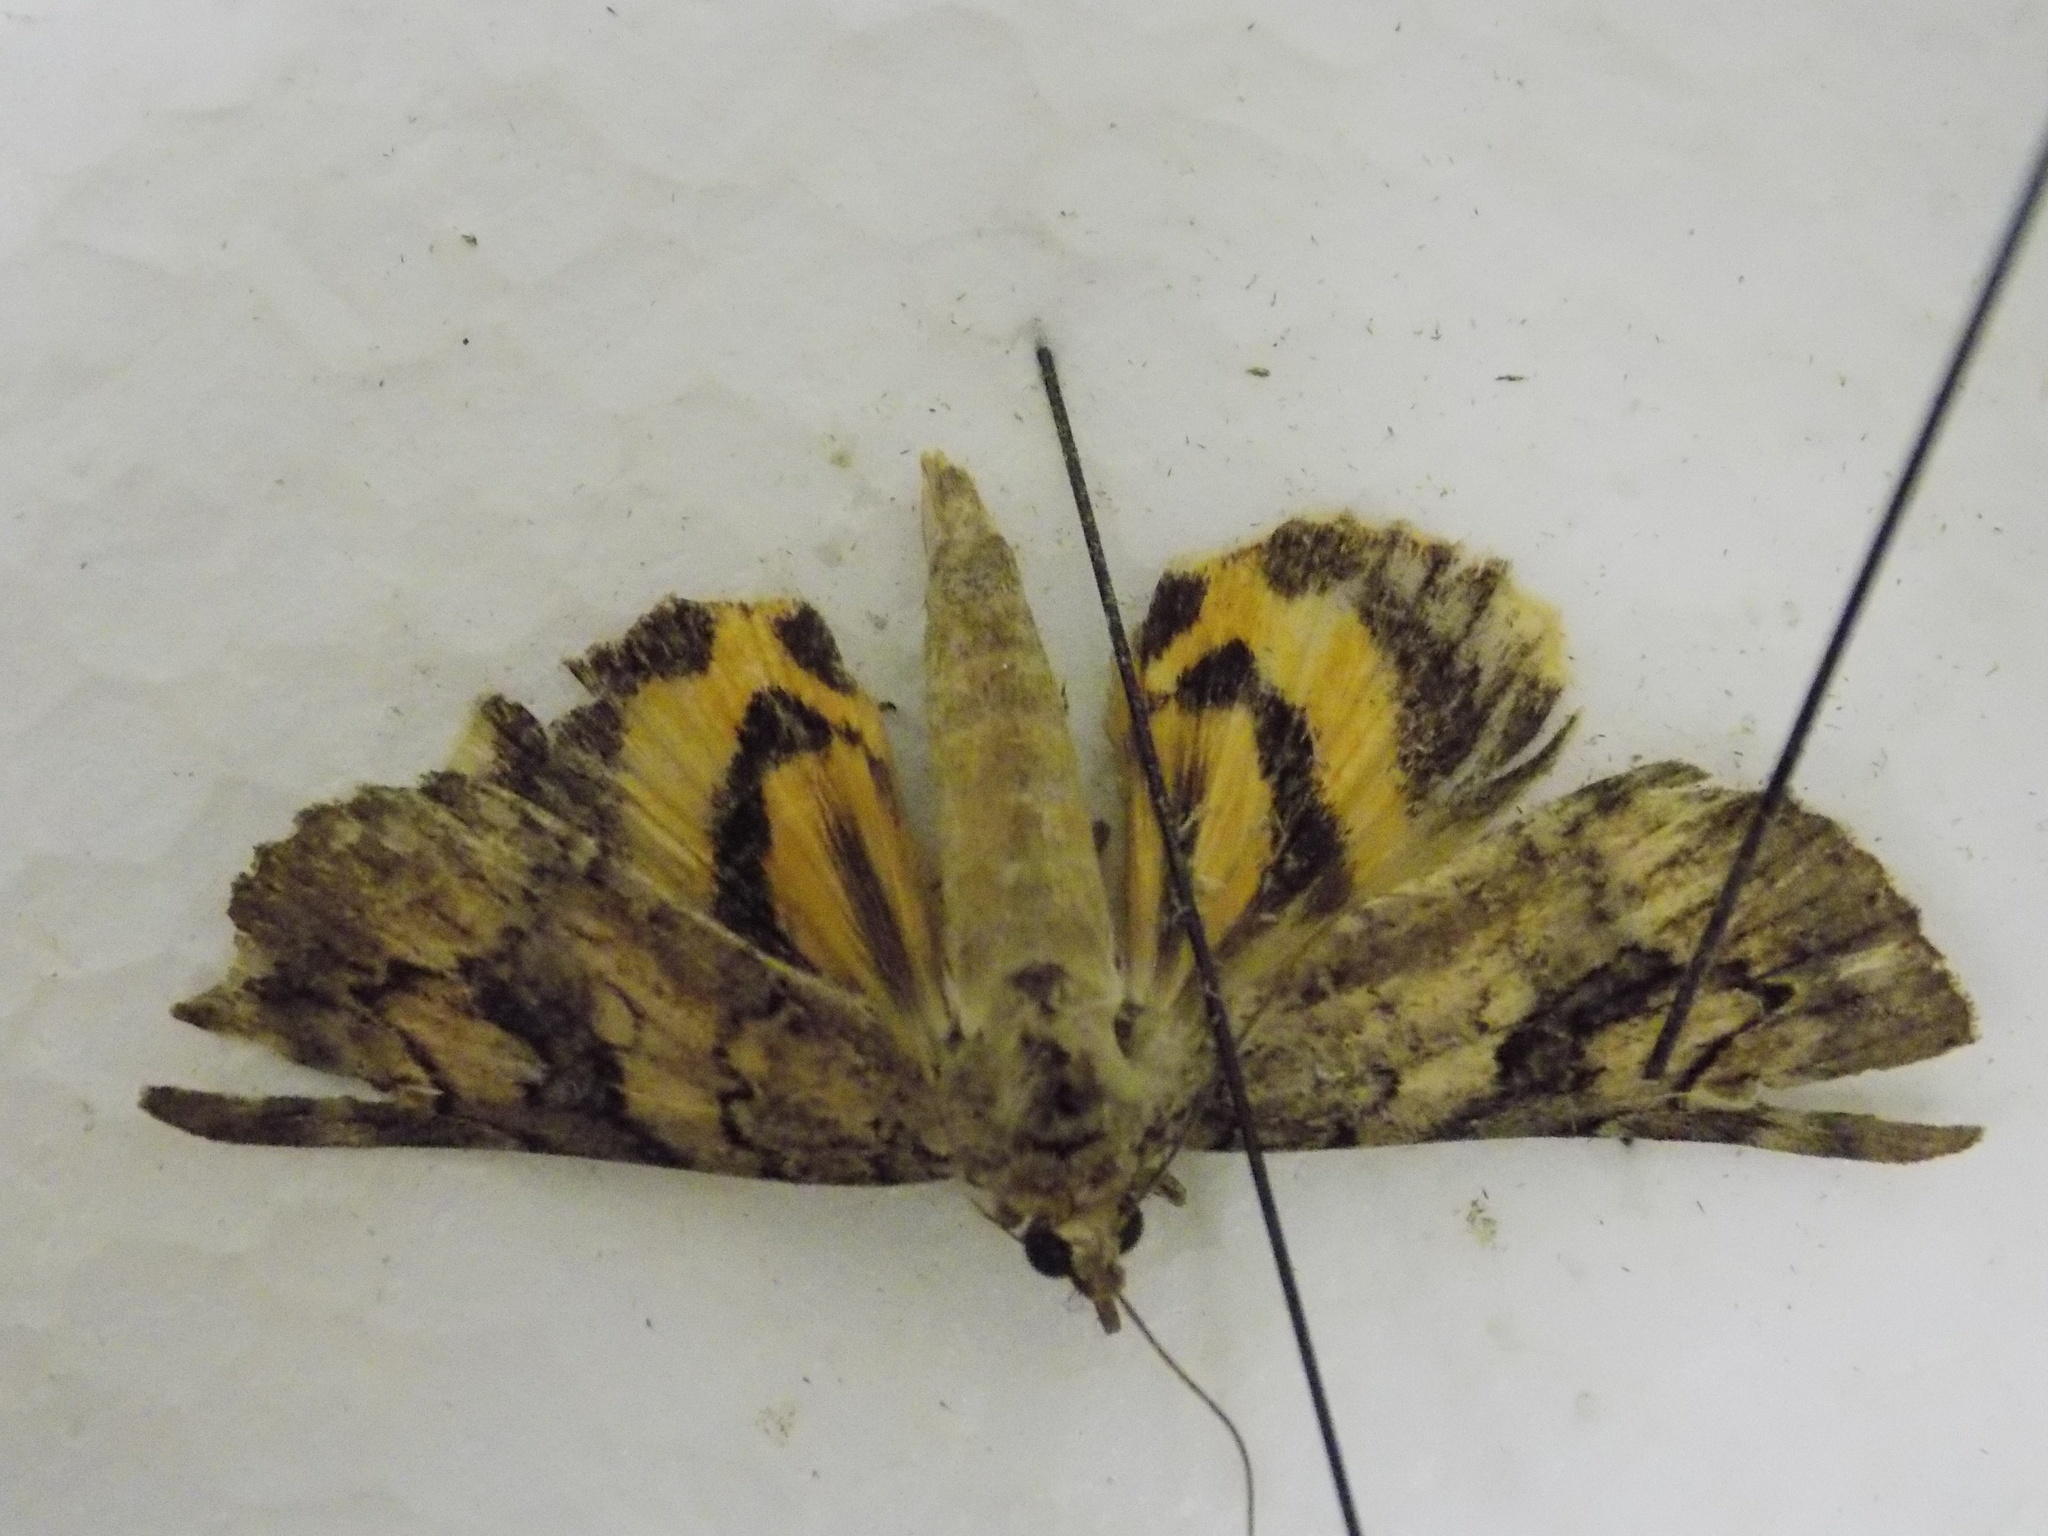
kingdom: Animalia
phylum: Arthropoda
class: Insecta
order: Lepidoptera
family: Erebidae
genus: Catocala
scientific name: Catocala micronympha
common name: Little nymph underwing
